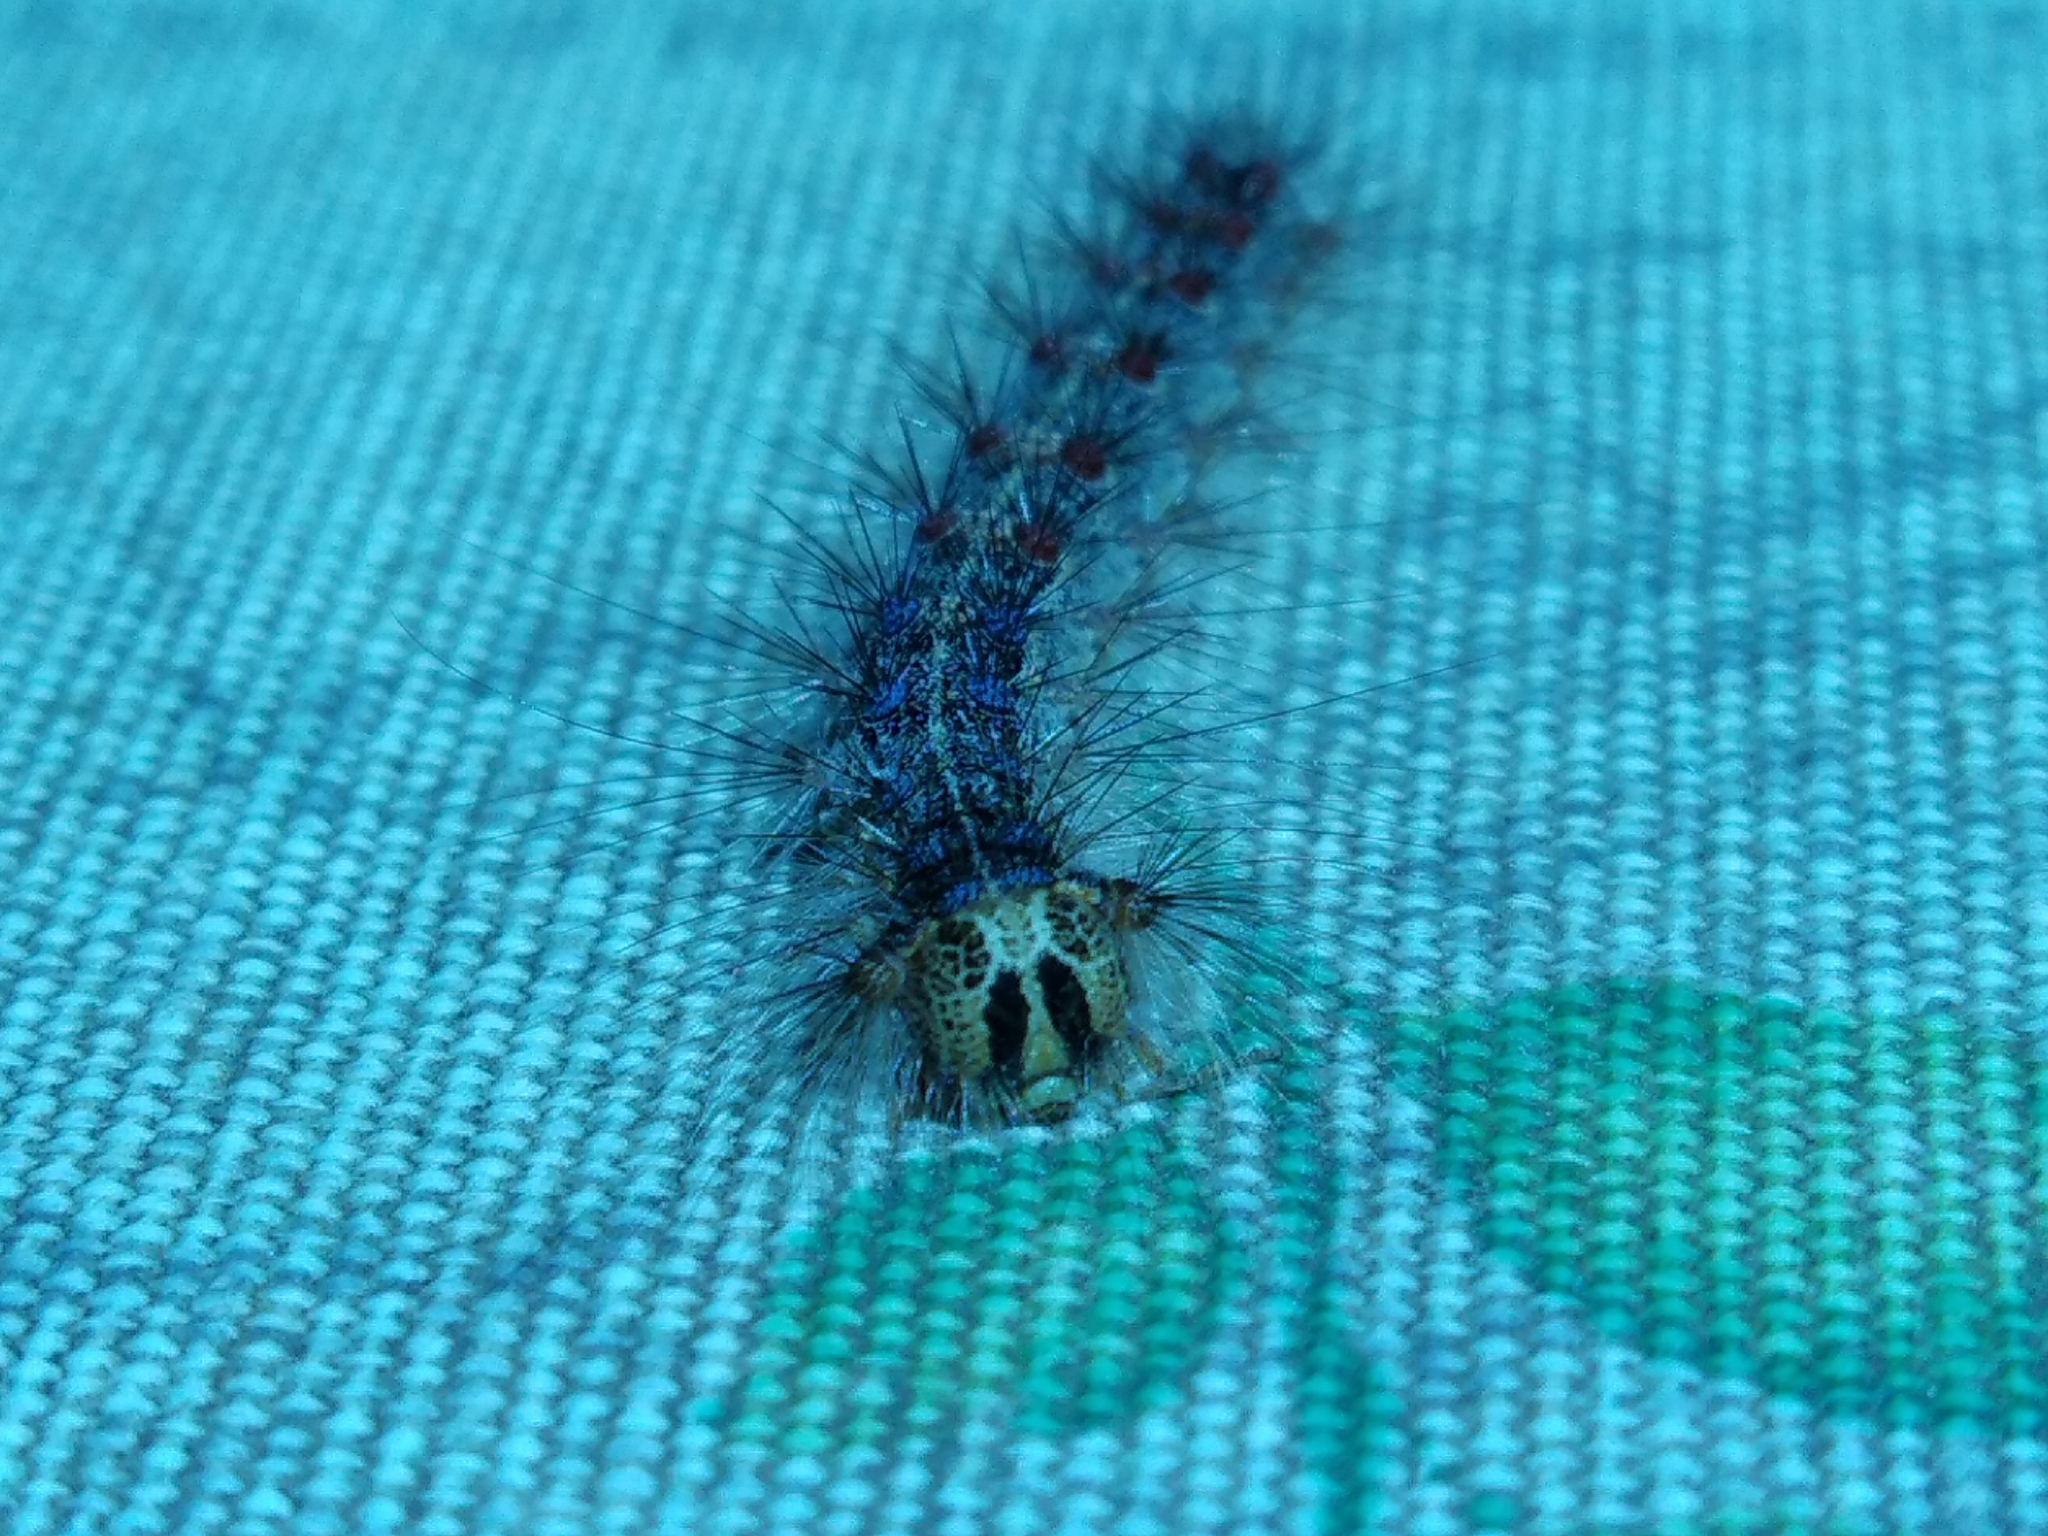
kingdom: Animalia
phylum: Arthropoda
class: Insecta
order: Lepidoptera
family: Erebidae
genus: Lymantria
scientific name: Lymantria dispar
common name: Gypsy moth
